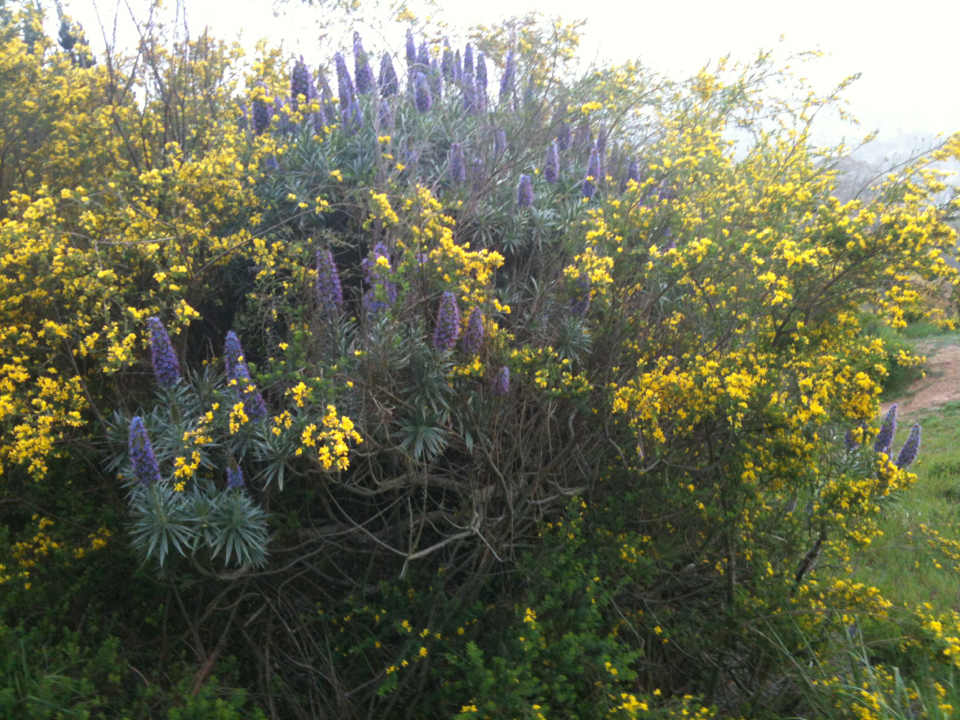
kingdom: Plantae
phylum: Tracheophyta
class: Magnoliopsida
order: Boraginales
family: Boraginaceae
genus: Echium
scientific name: Echium candicans
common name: Pride of madeira
